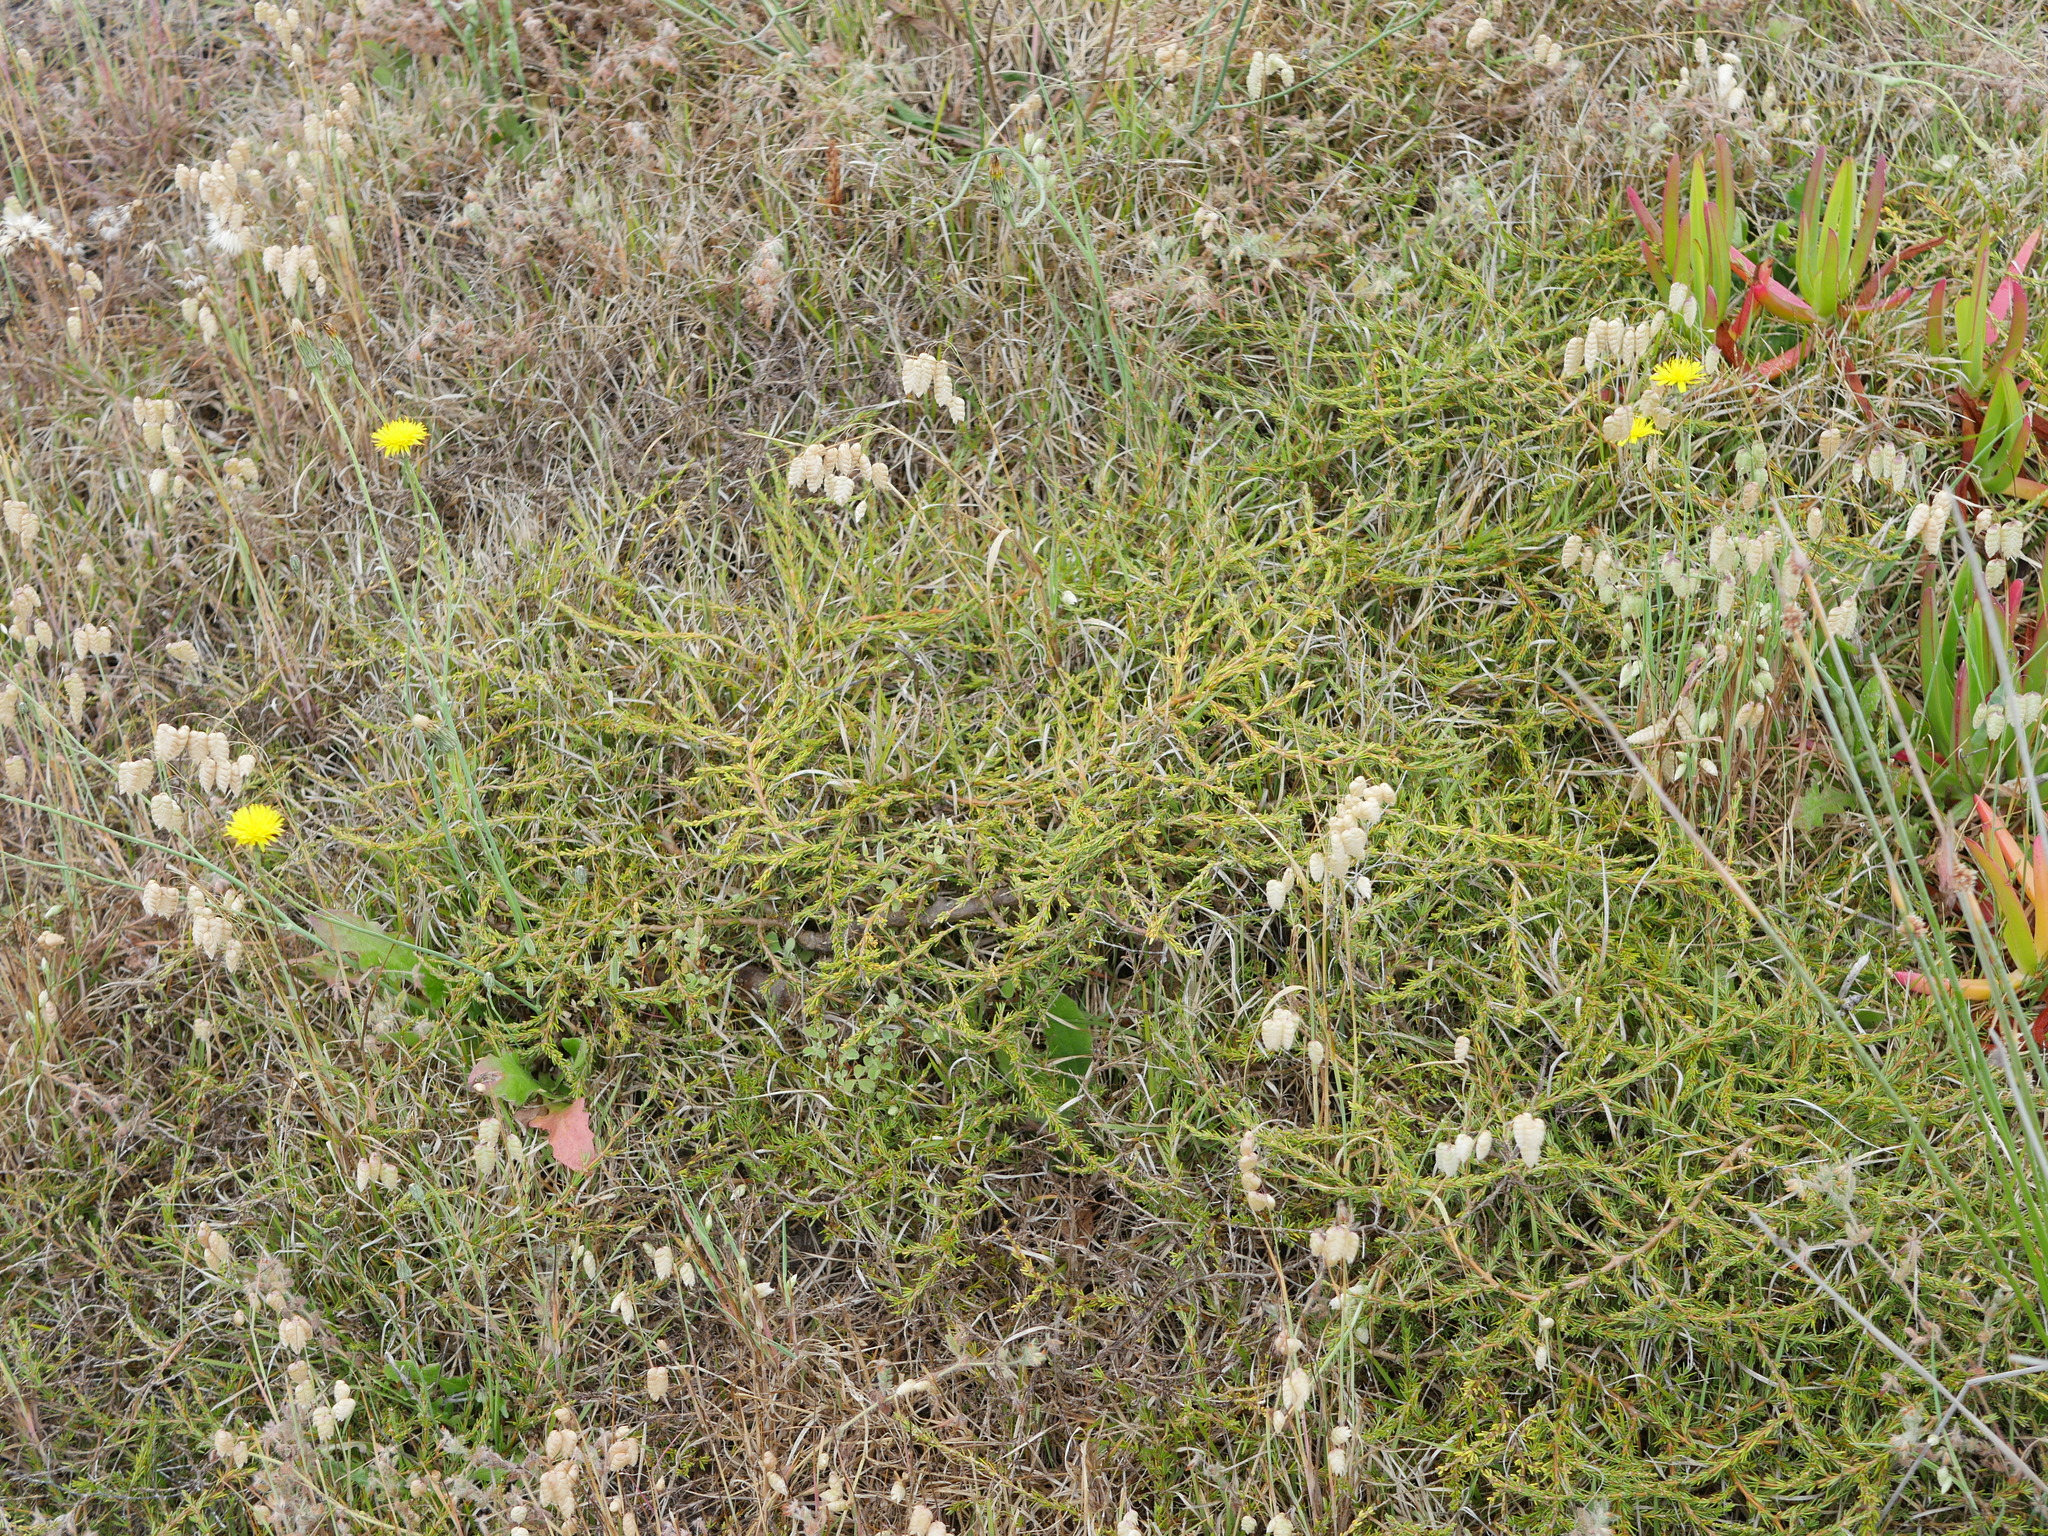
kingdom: Plantae
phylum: Tracheophyta
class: Magnoliopsida
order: Gentianales
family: Rubiaceae
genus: Coprosma
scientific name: Coprosma acerosa
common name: Sand coprosma
